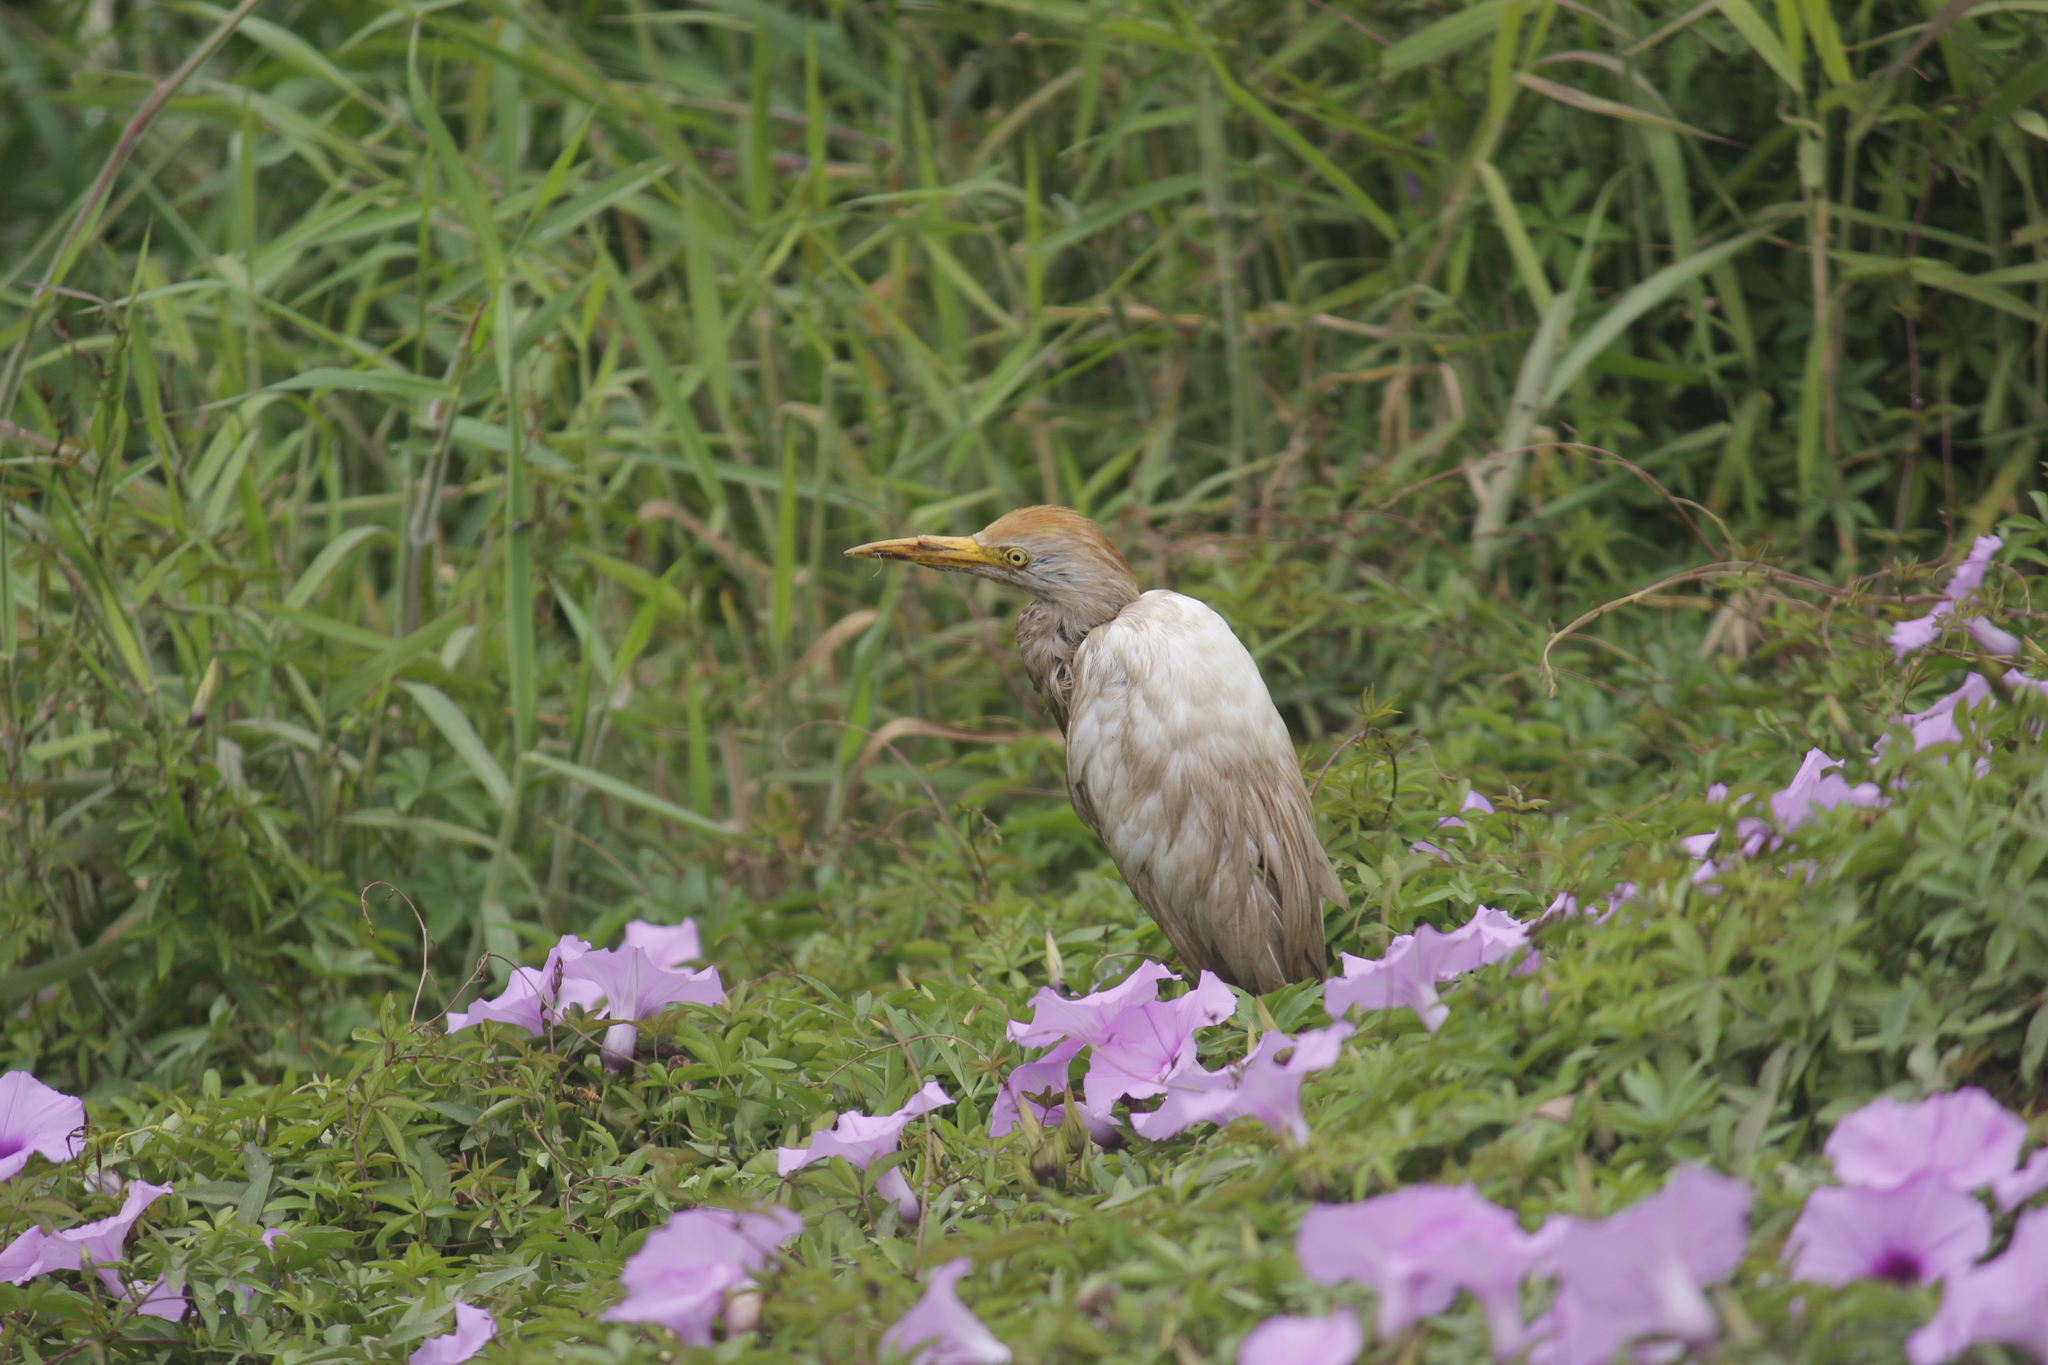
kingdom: Animalia
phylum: Chordata
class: Aves
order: Pelecaniformes
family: Ardeidae
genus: Bubulcus
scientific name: Bubulcus ibis
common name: Cattle egret
